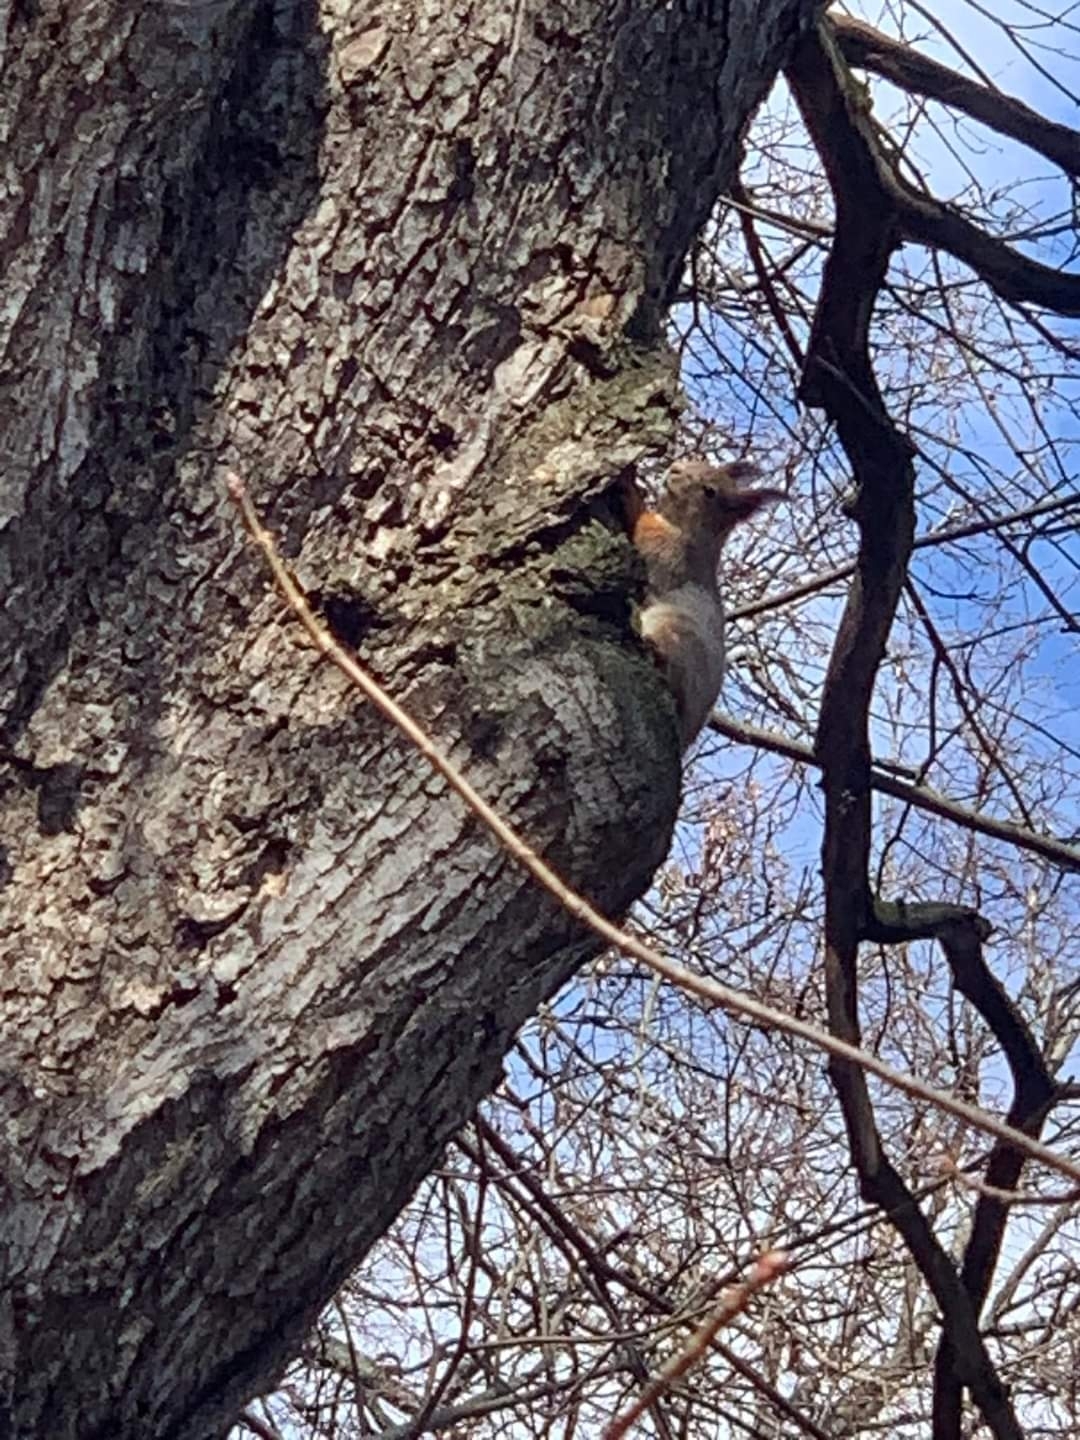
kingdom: Animalia
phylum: Chordata
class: Mammalia
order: Rodentia
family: Sciuridae
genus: Sciurus
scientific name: Sciurus vulgaris
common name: Eurasian red squirrel
